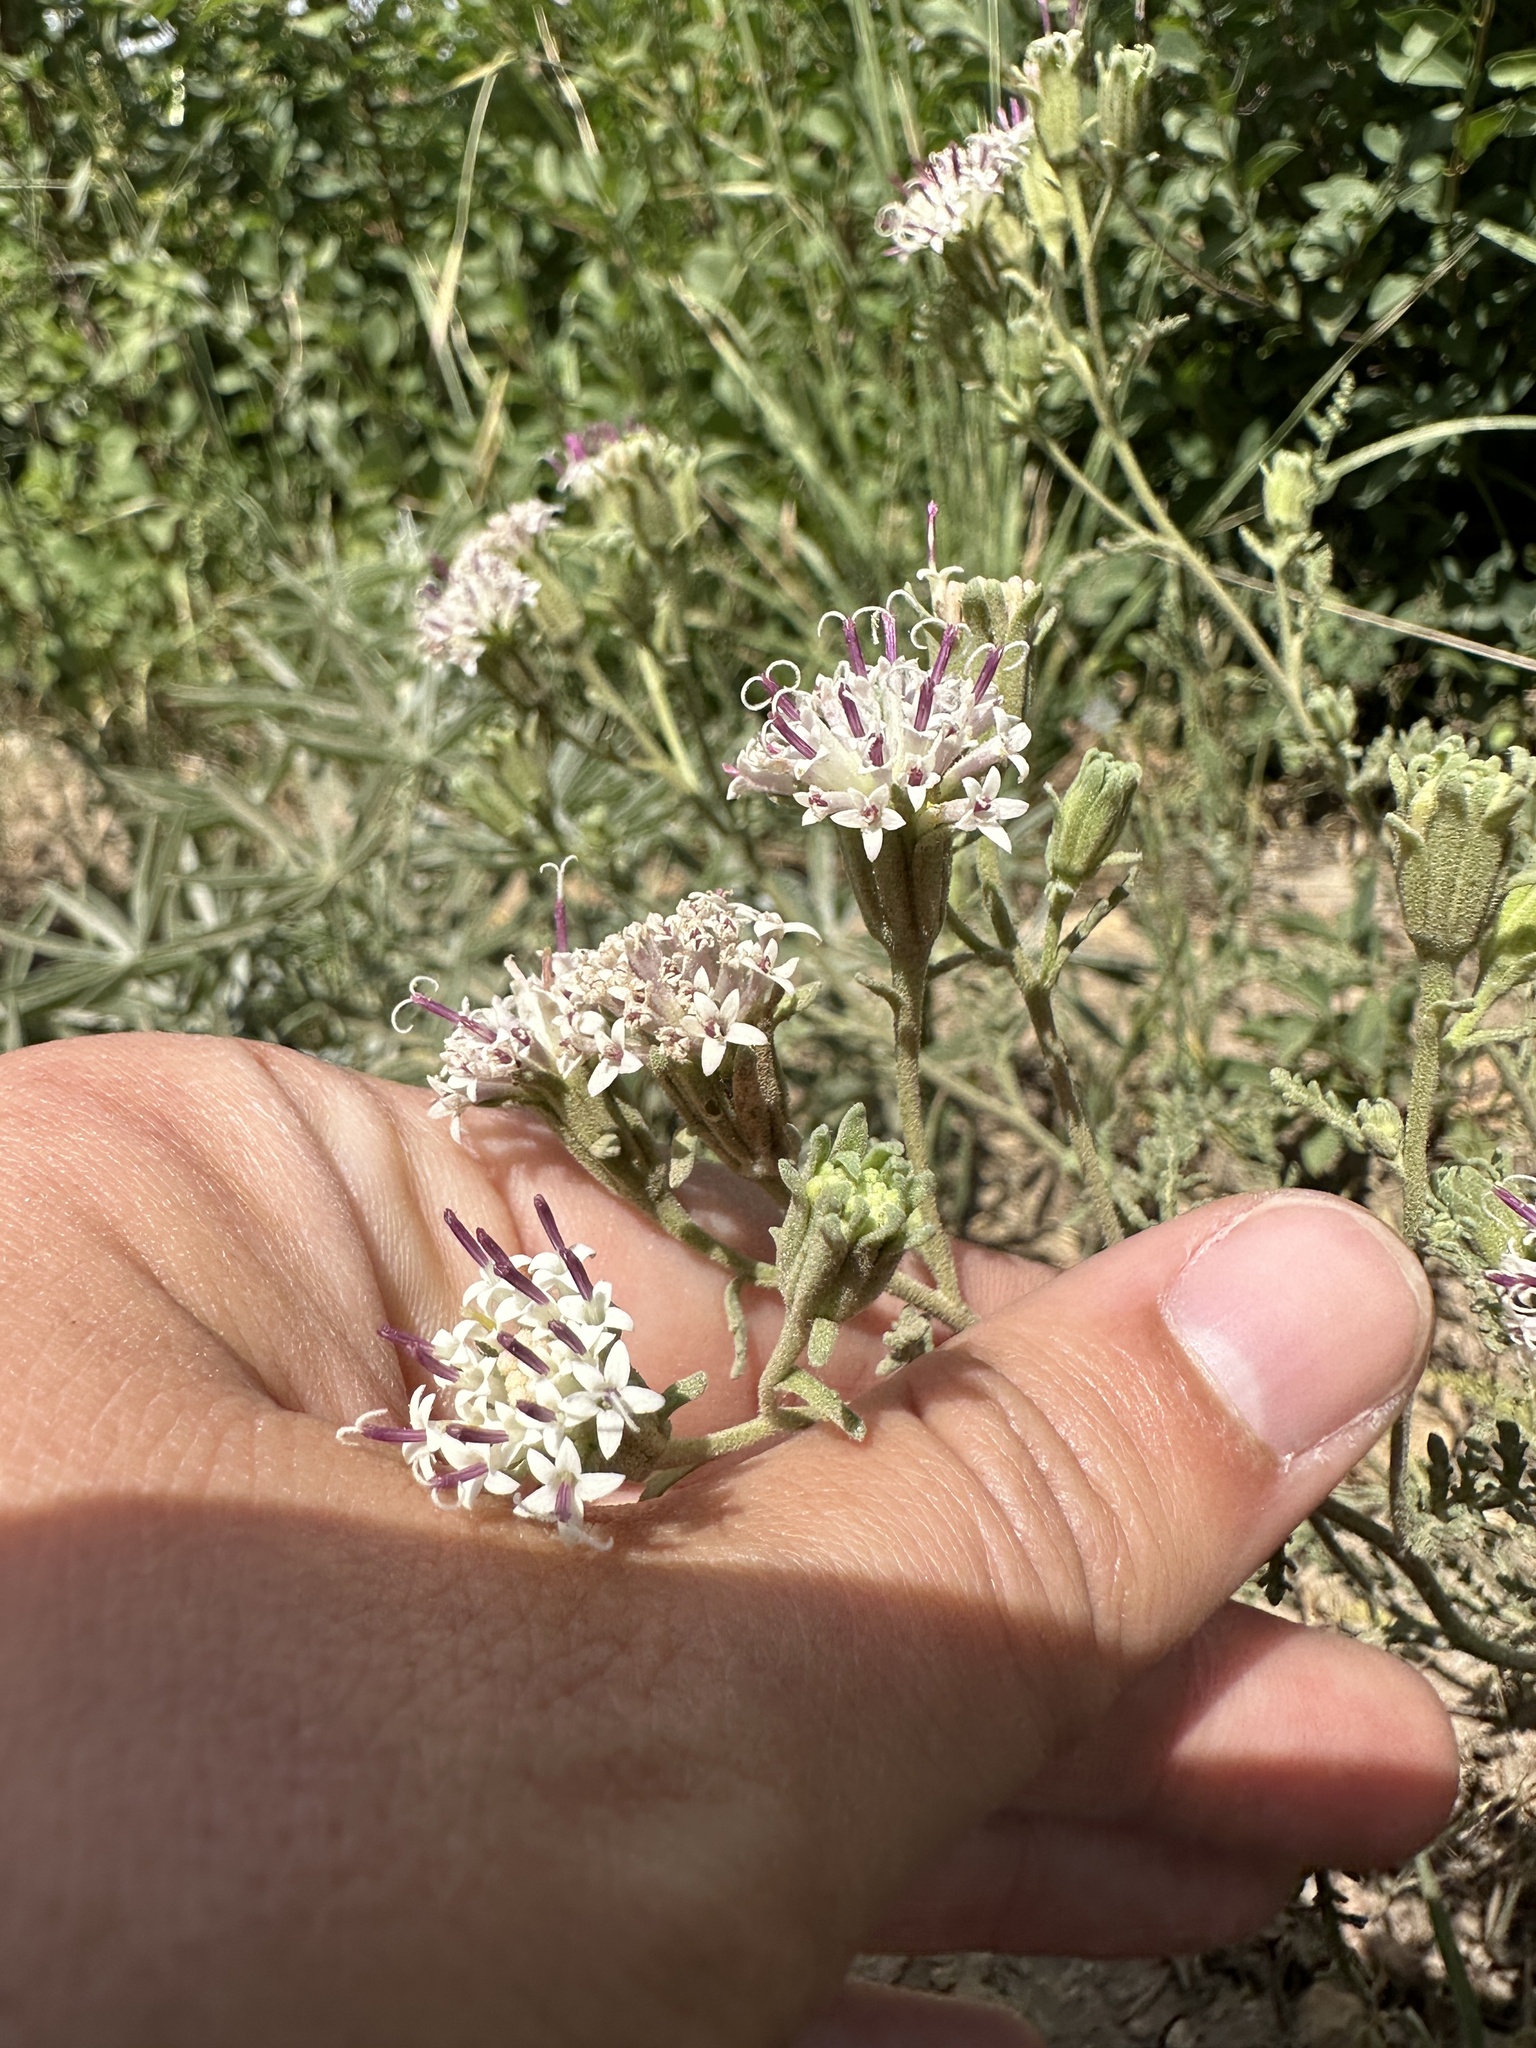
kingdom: Plantae
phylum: Tracheophyta
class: Magnoliopsida
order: Asterales
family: Asteraceae
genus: Chaenactis
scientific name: Chaenactis douglasii
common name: Hoary pincushion
